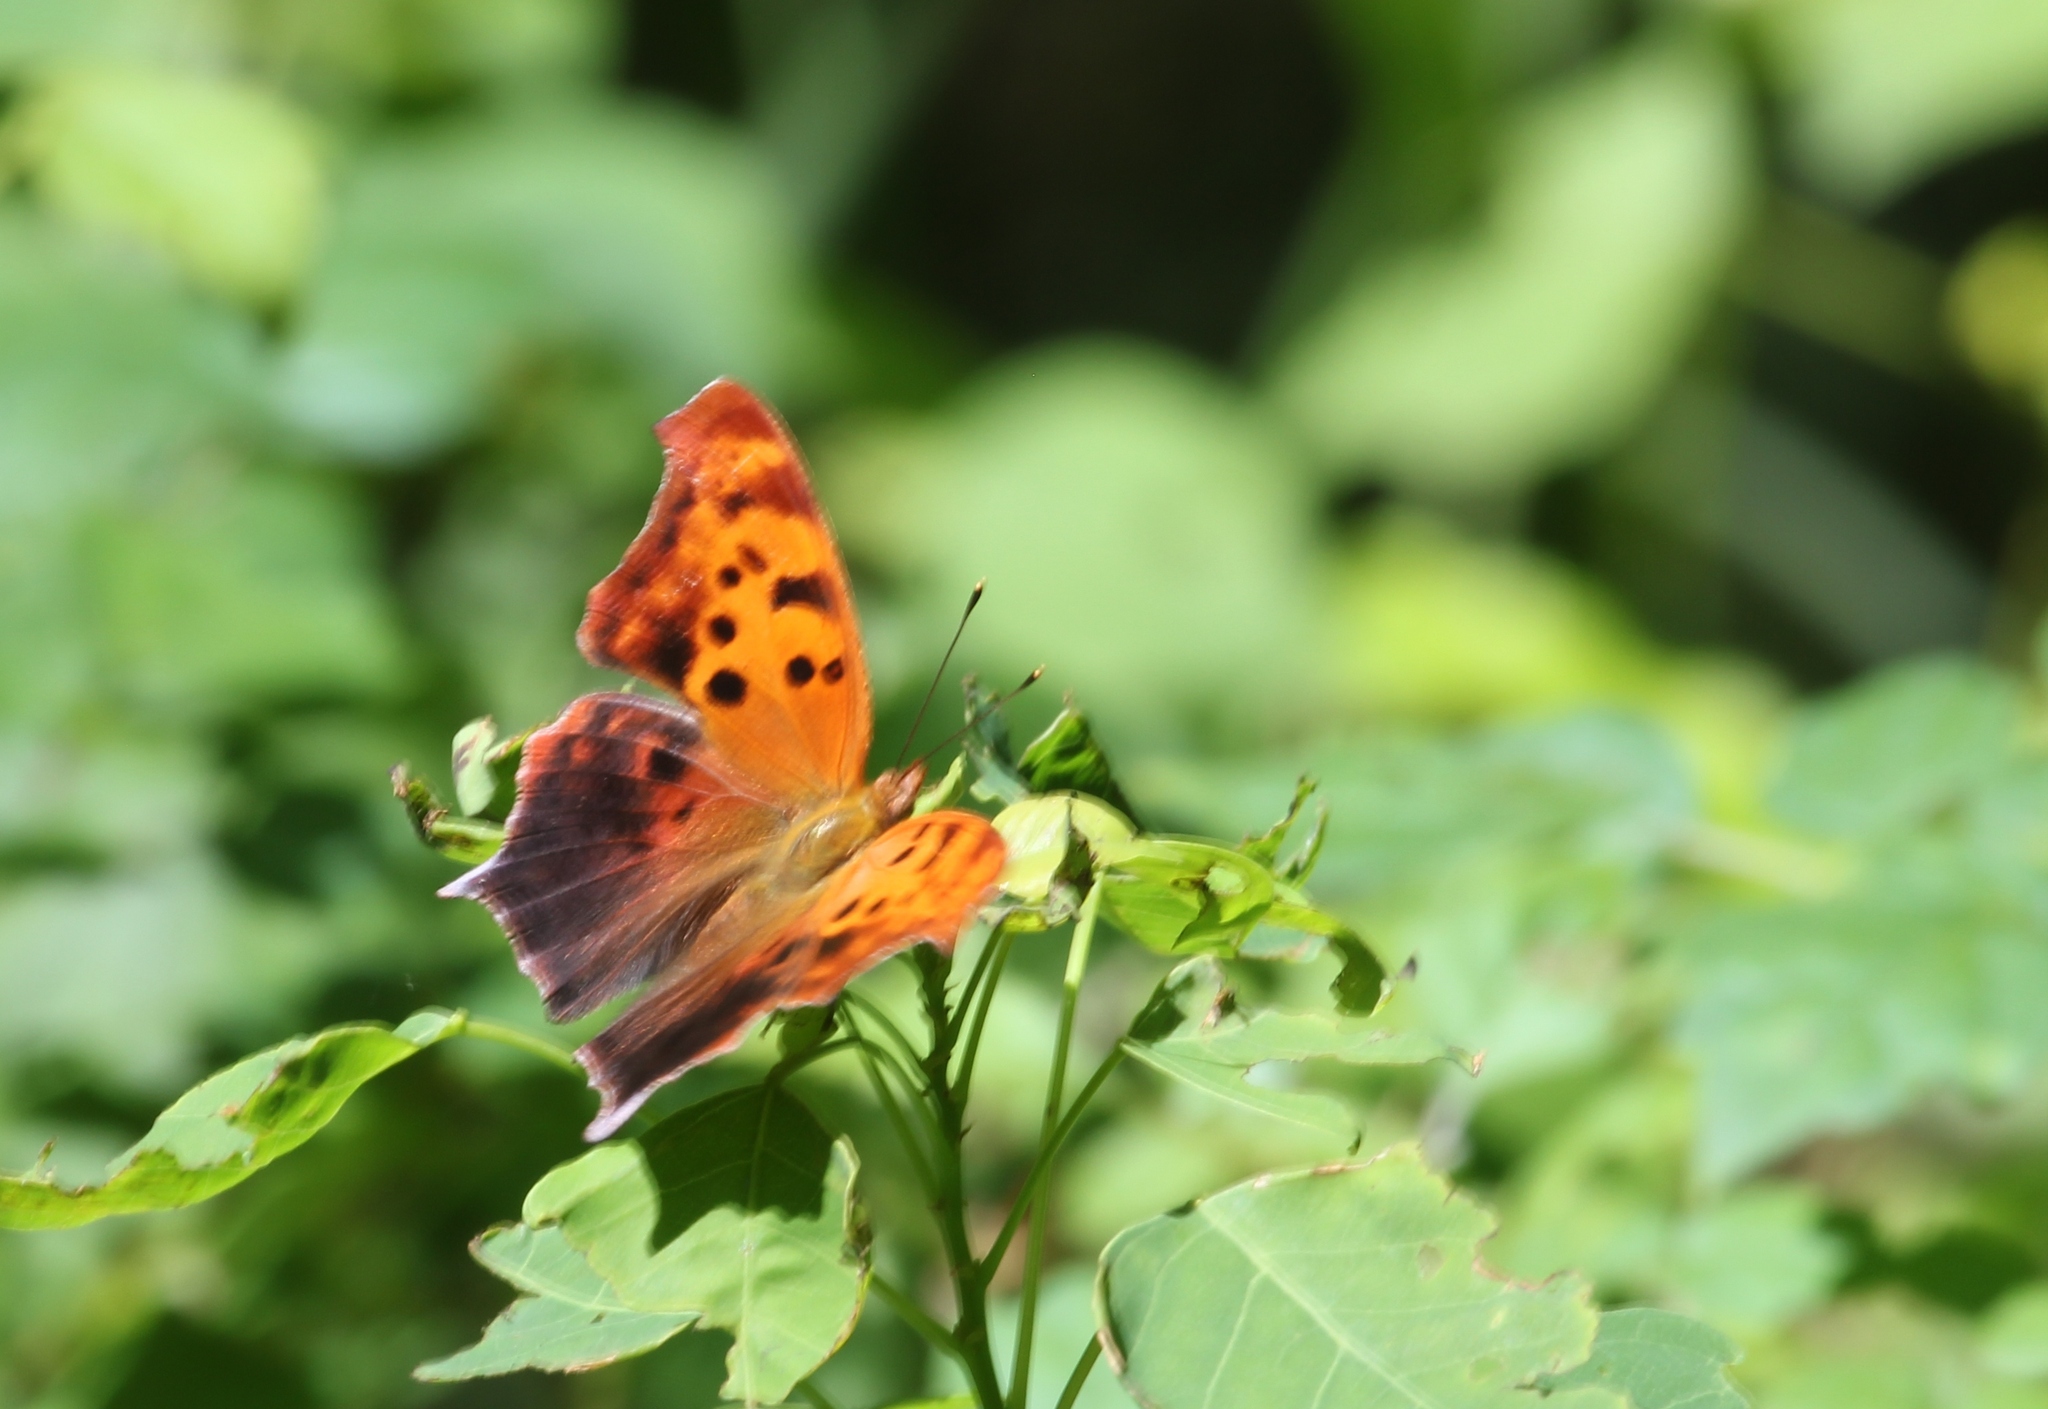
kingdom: Animalia
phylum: Arthropoda
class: Insecta
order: Lepidoptera
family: Nymphalidae
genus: Polygonia
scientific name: Polygonia interrogationis
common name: Question mark
